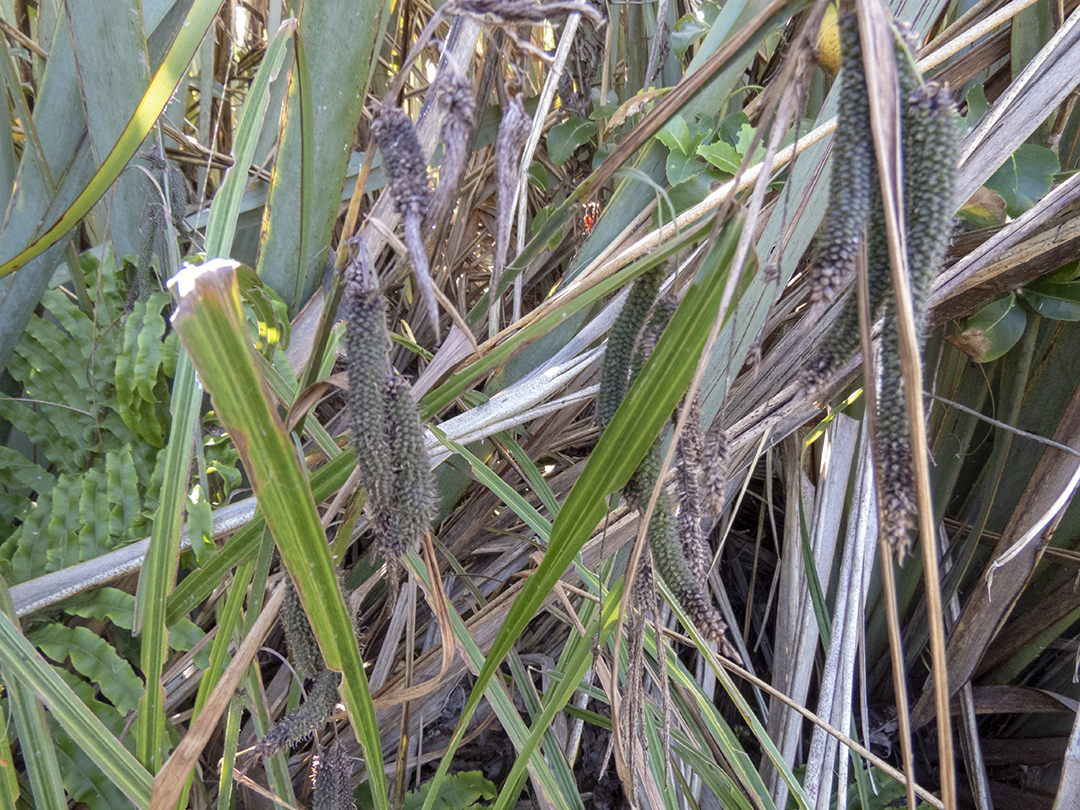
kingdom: Plantae
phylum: Tracheophyta
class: Liliopsida
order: Poales
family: Cyperaceae
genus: Carex
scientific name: Carex geminata
